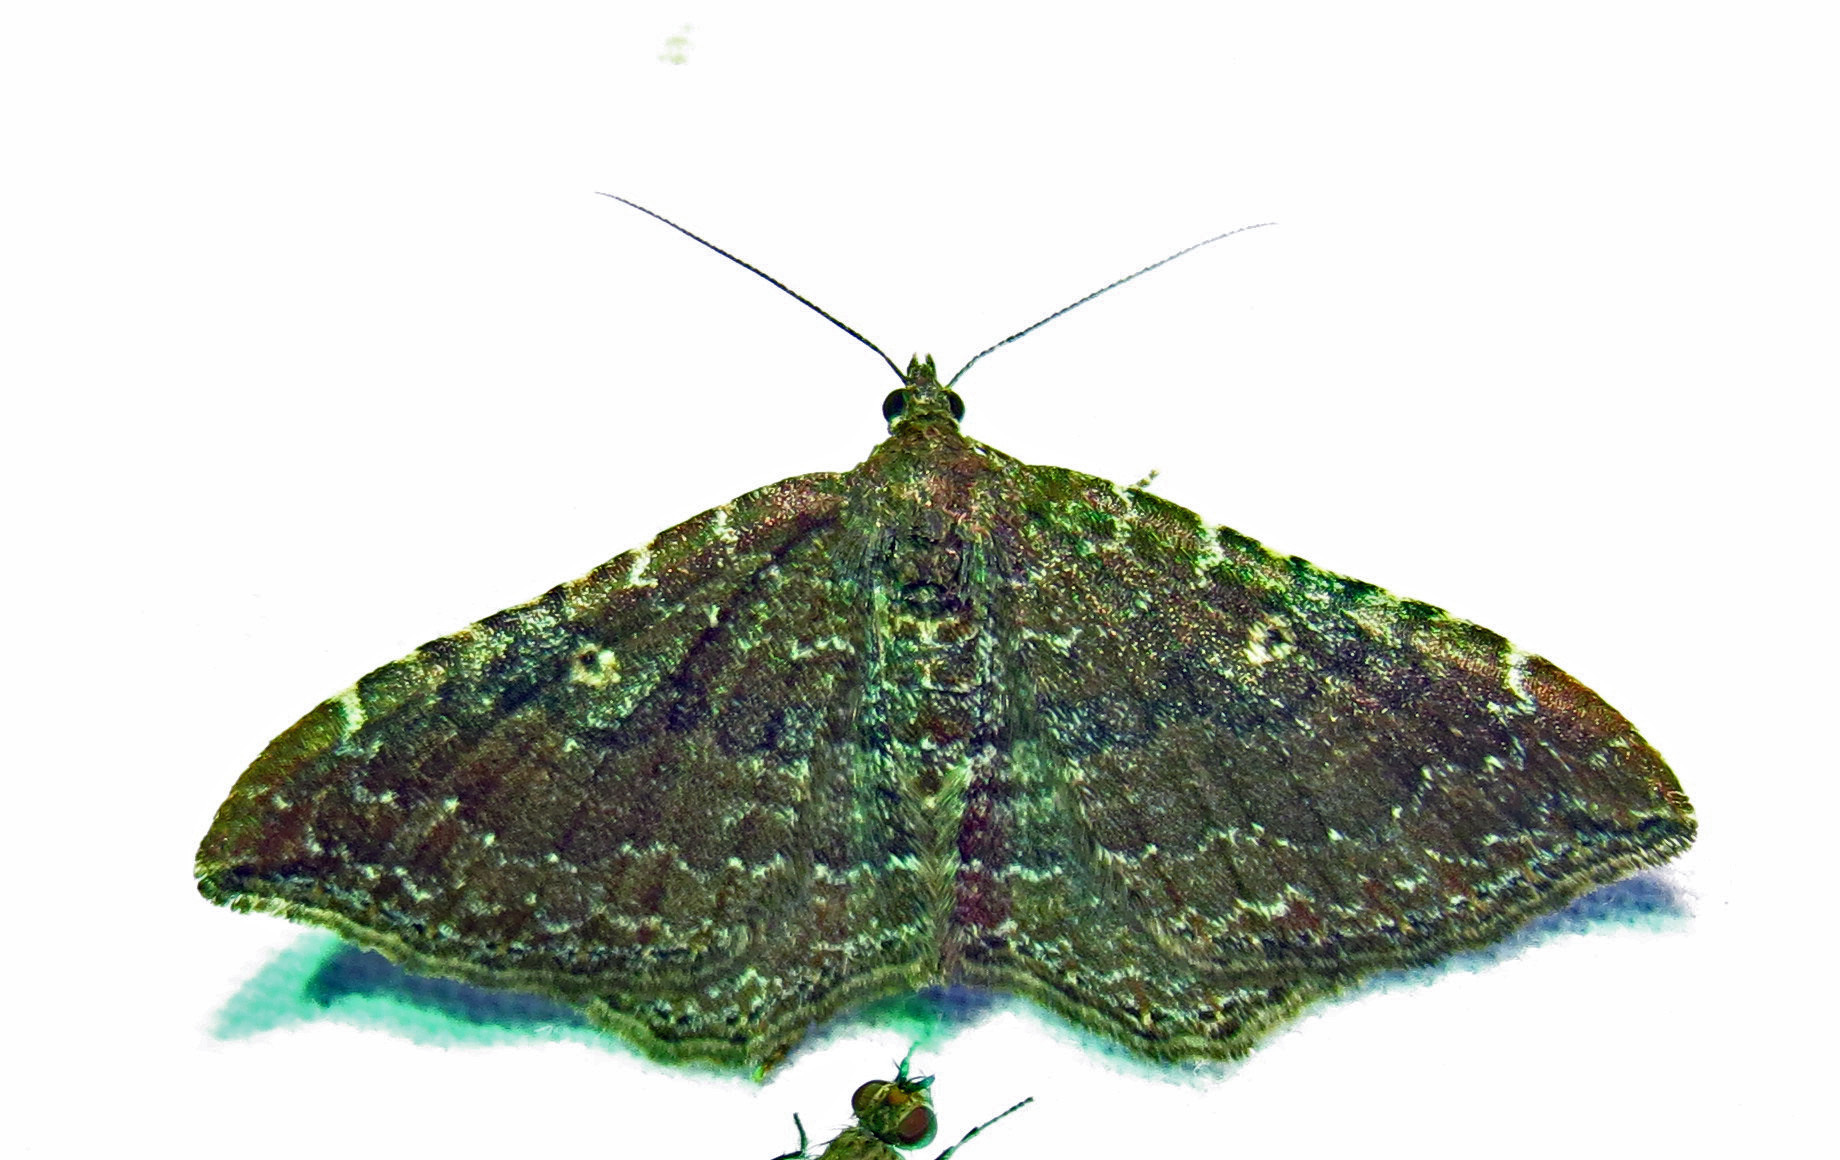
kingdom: Animalia
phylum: Arthropoda
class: Insecta
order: Lepidoptera
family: Geometridae
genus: Orthonama
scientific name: Orthonama obstipata
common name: The gem
